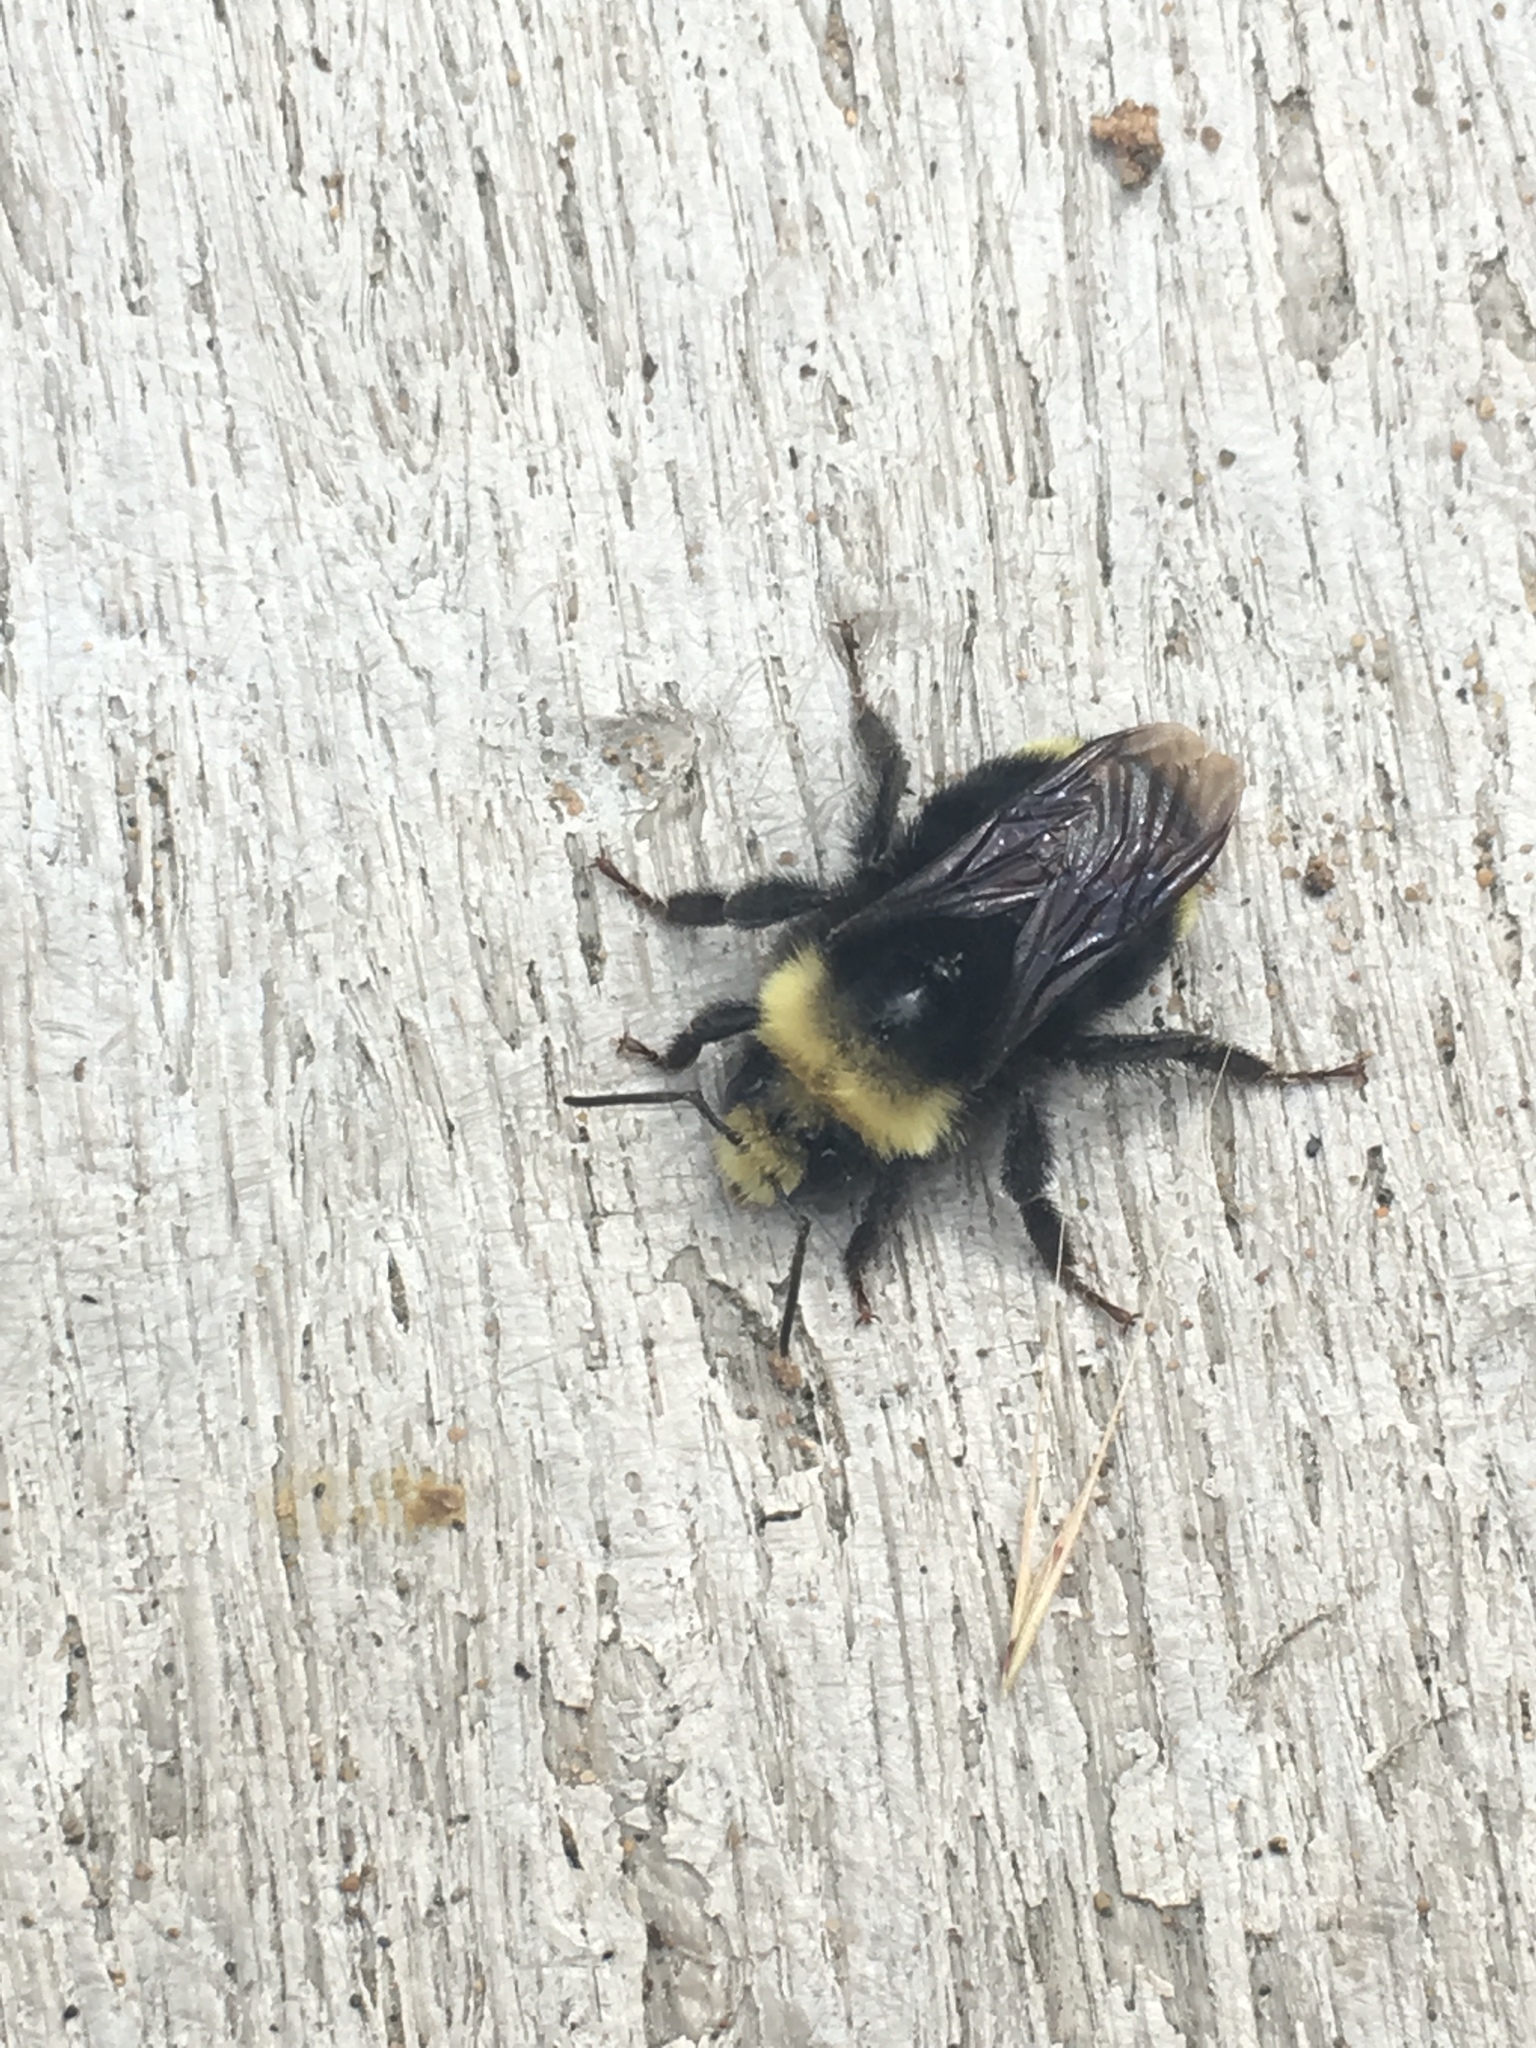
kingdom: Animalia
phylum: Arthropoda
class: Insecta
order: Hymenoptera
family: Apidae
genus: Bombus
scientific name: Bombus vosnesenskii
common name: Vosnesensky bumble bee
